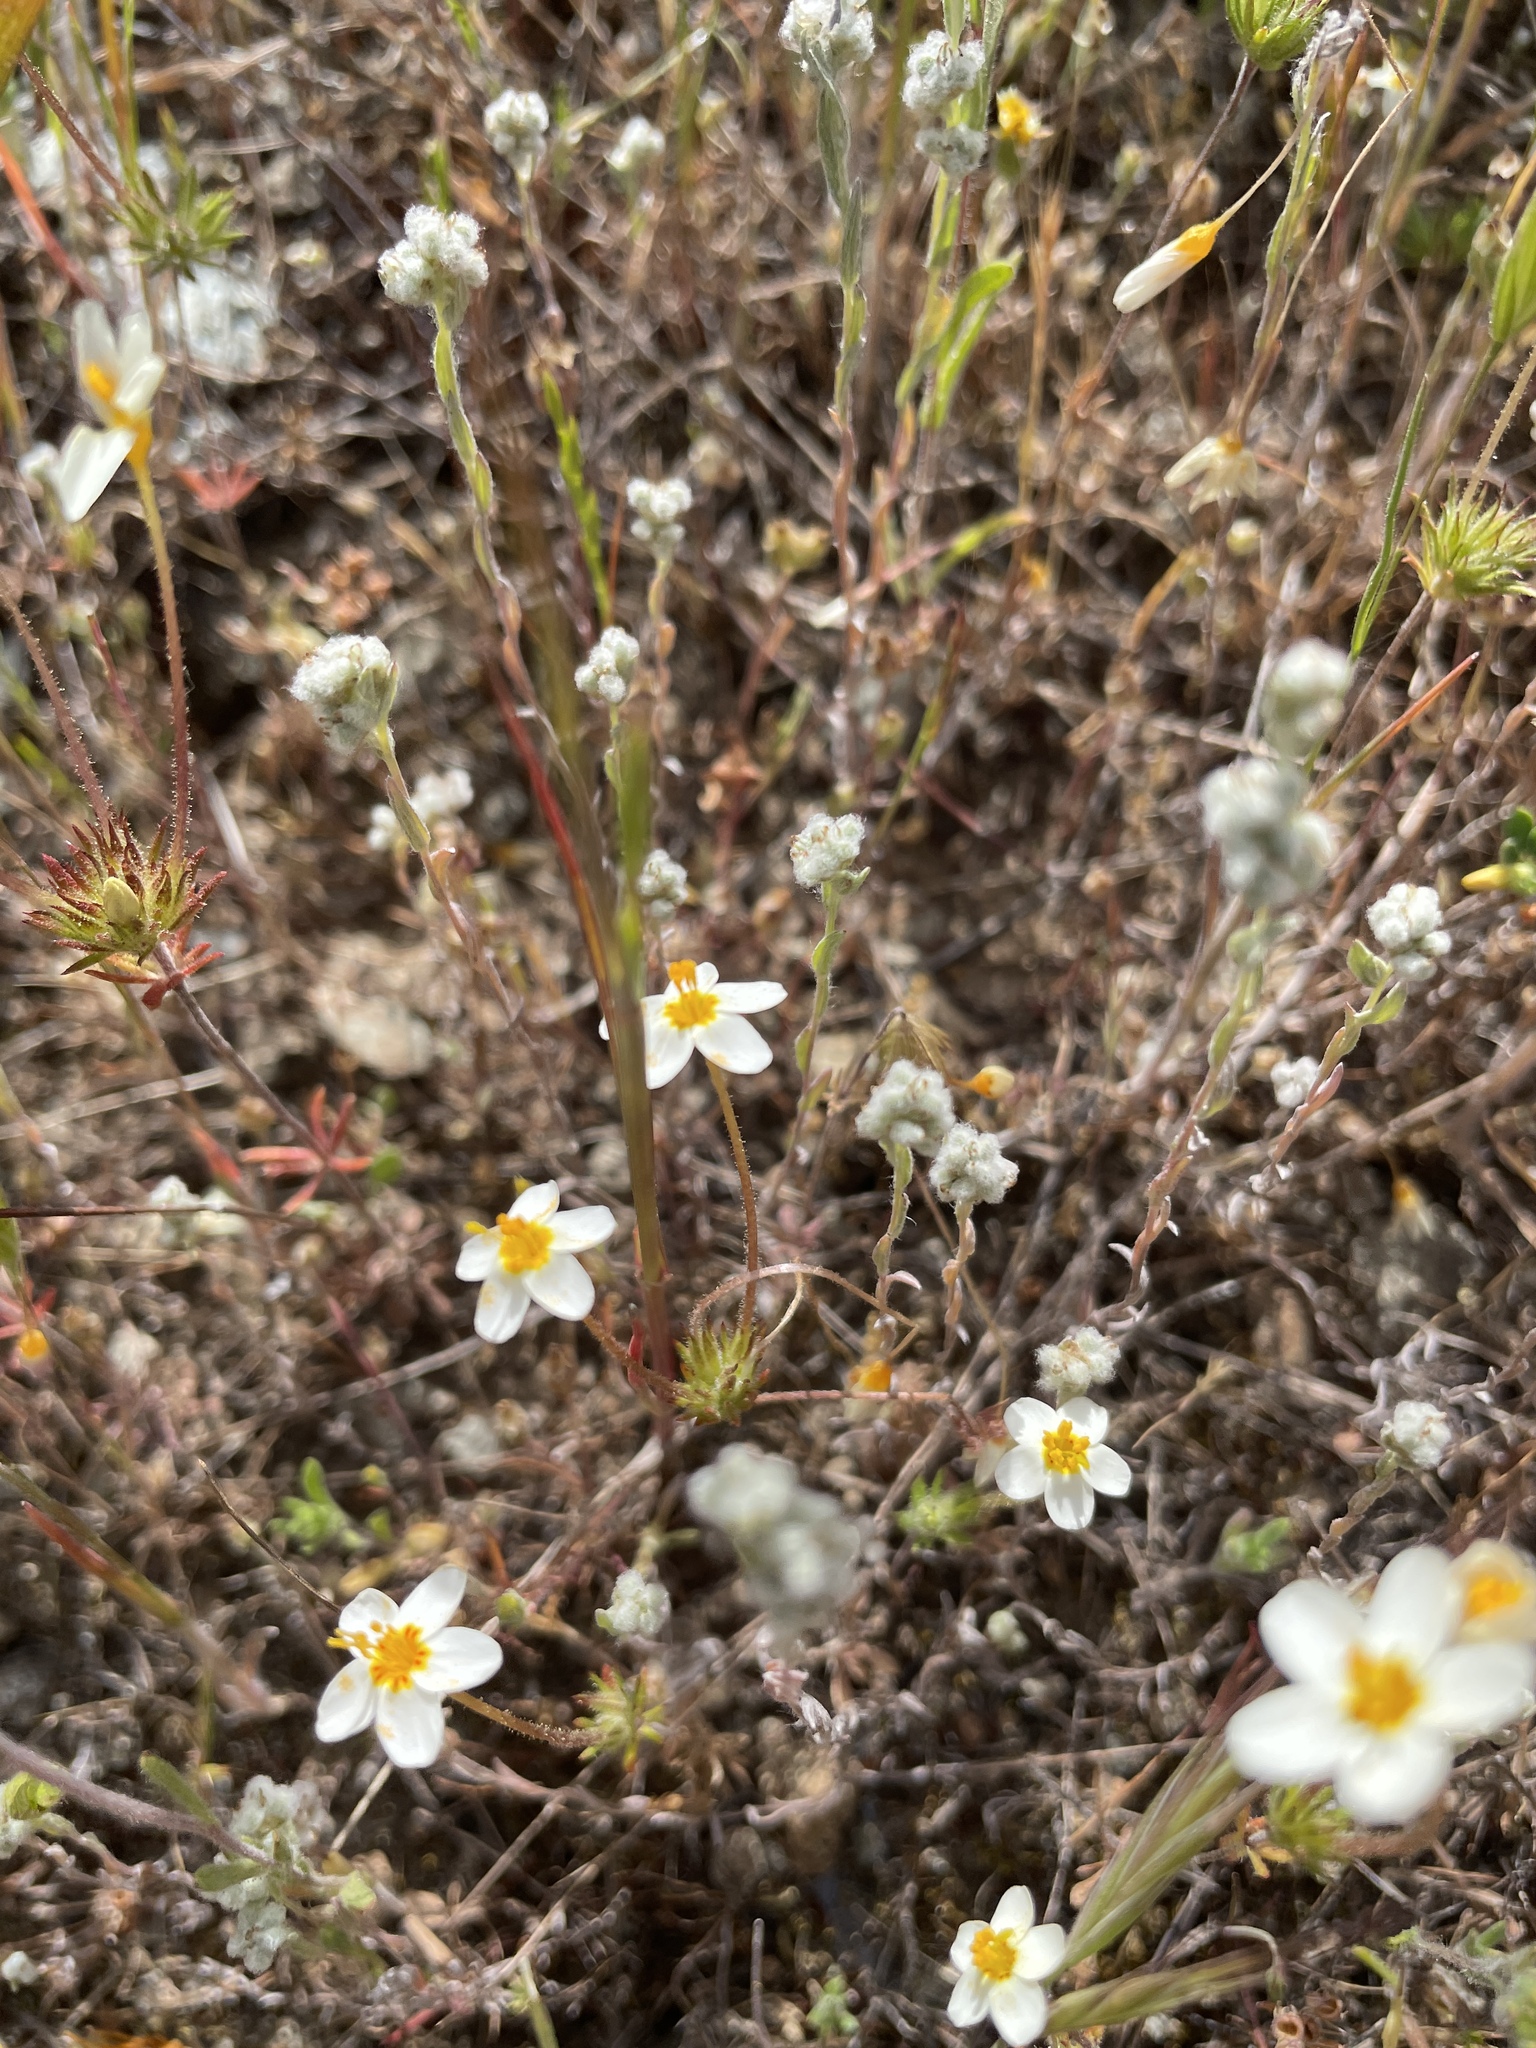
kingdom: Plantae
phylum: Tracheophyta
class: Magnoliopsida
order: Ericales
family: Polemoniaceae
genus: Leptosiphon
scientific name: Leptosiphon parviflorus
